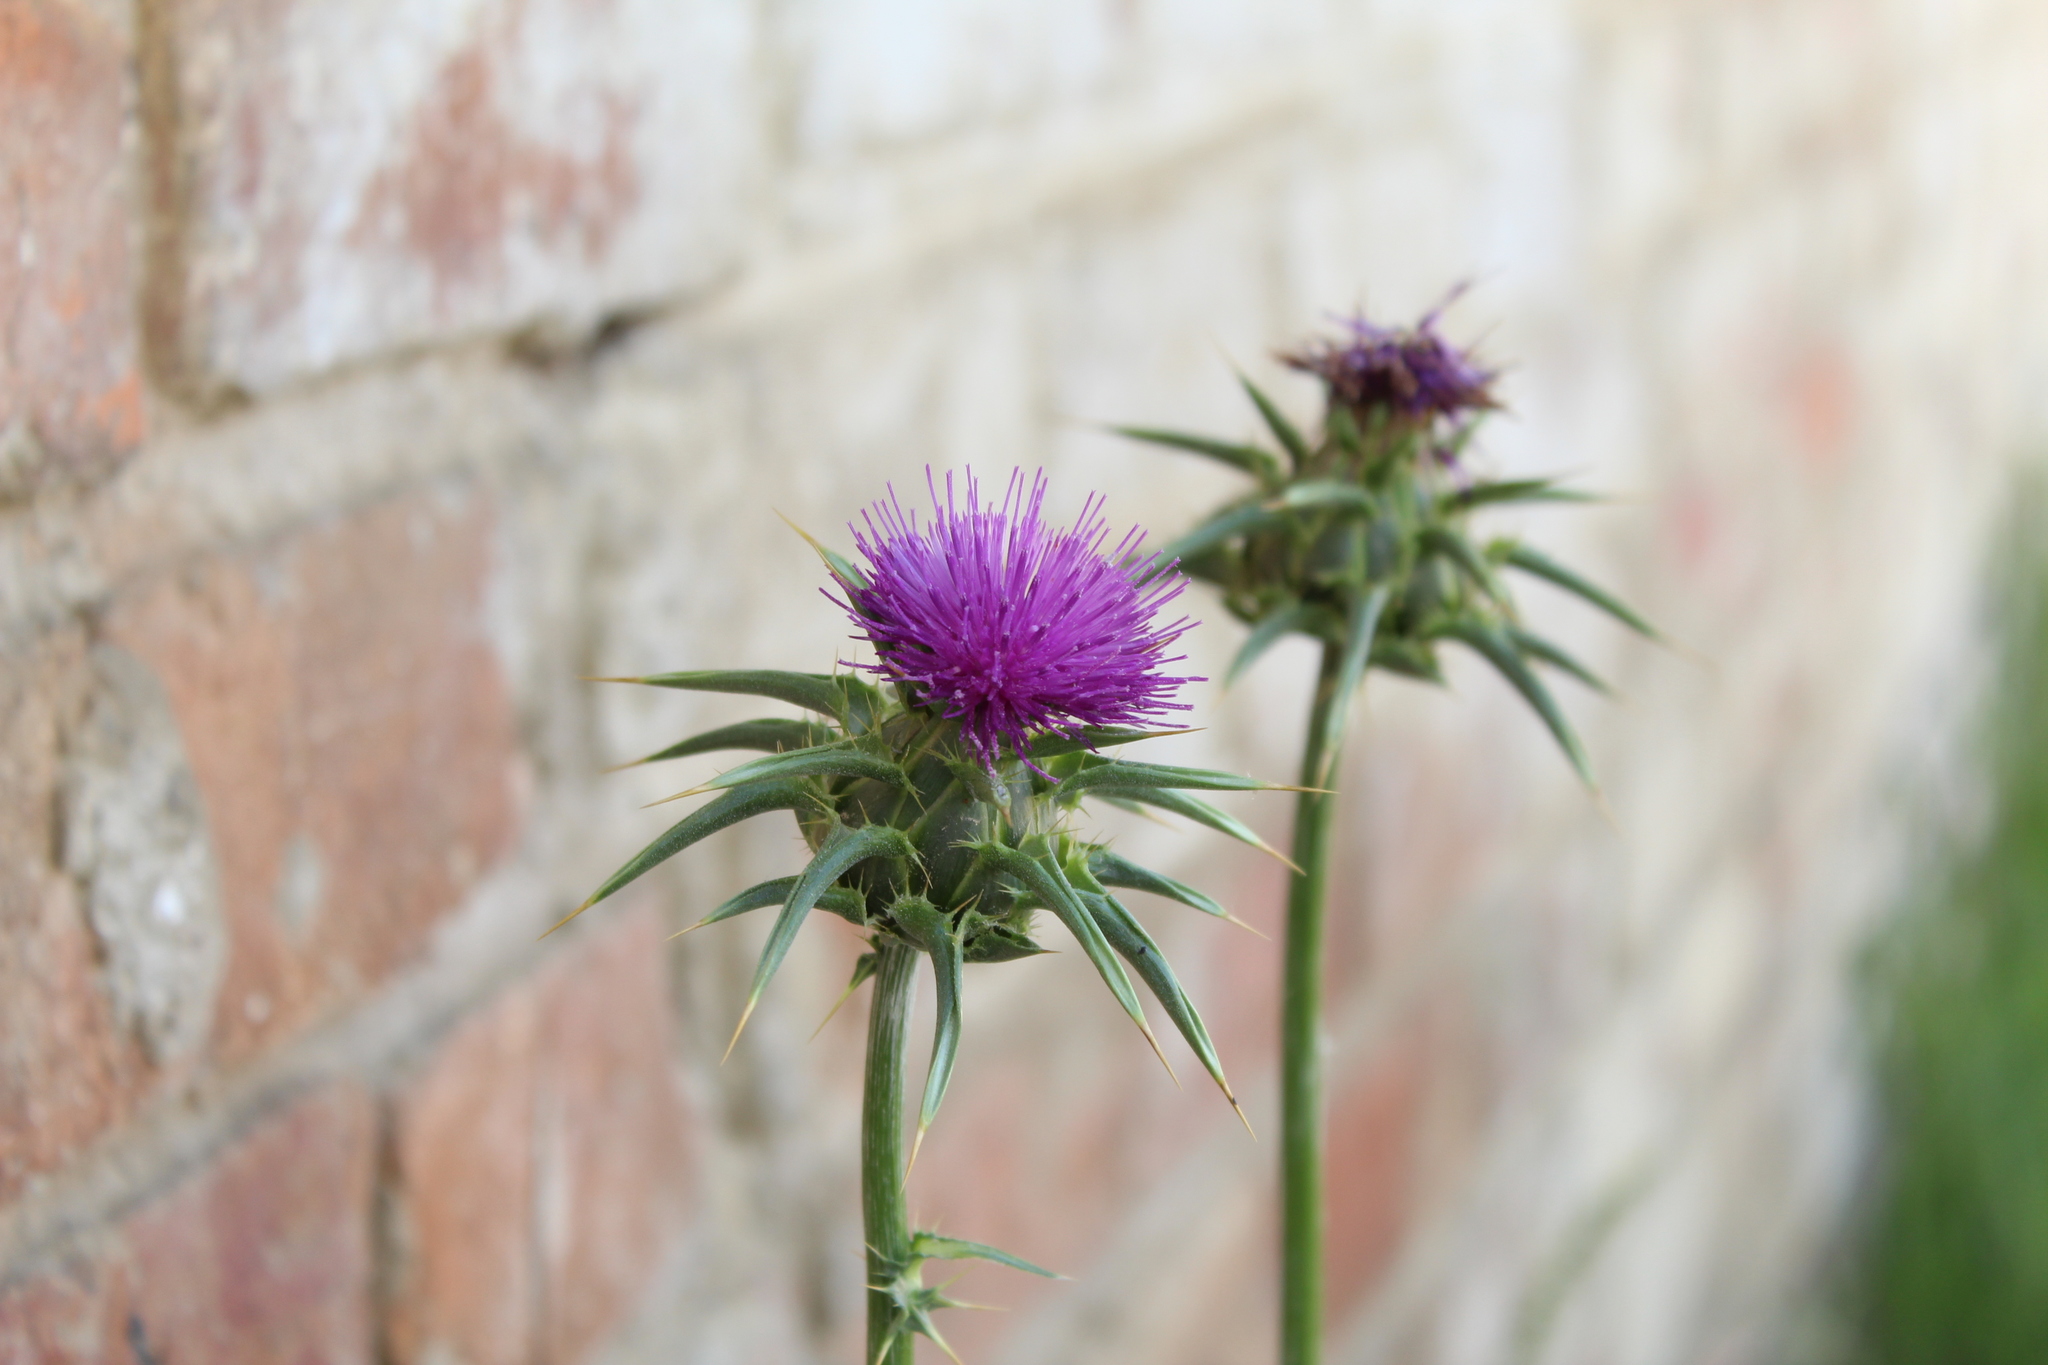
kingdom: Plantae
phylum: Tracheophyta
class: Magnoliopsida
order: Asterales
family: Asteraceae
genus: Silybum
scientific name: Silybum marianum
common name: Milk thistle
